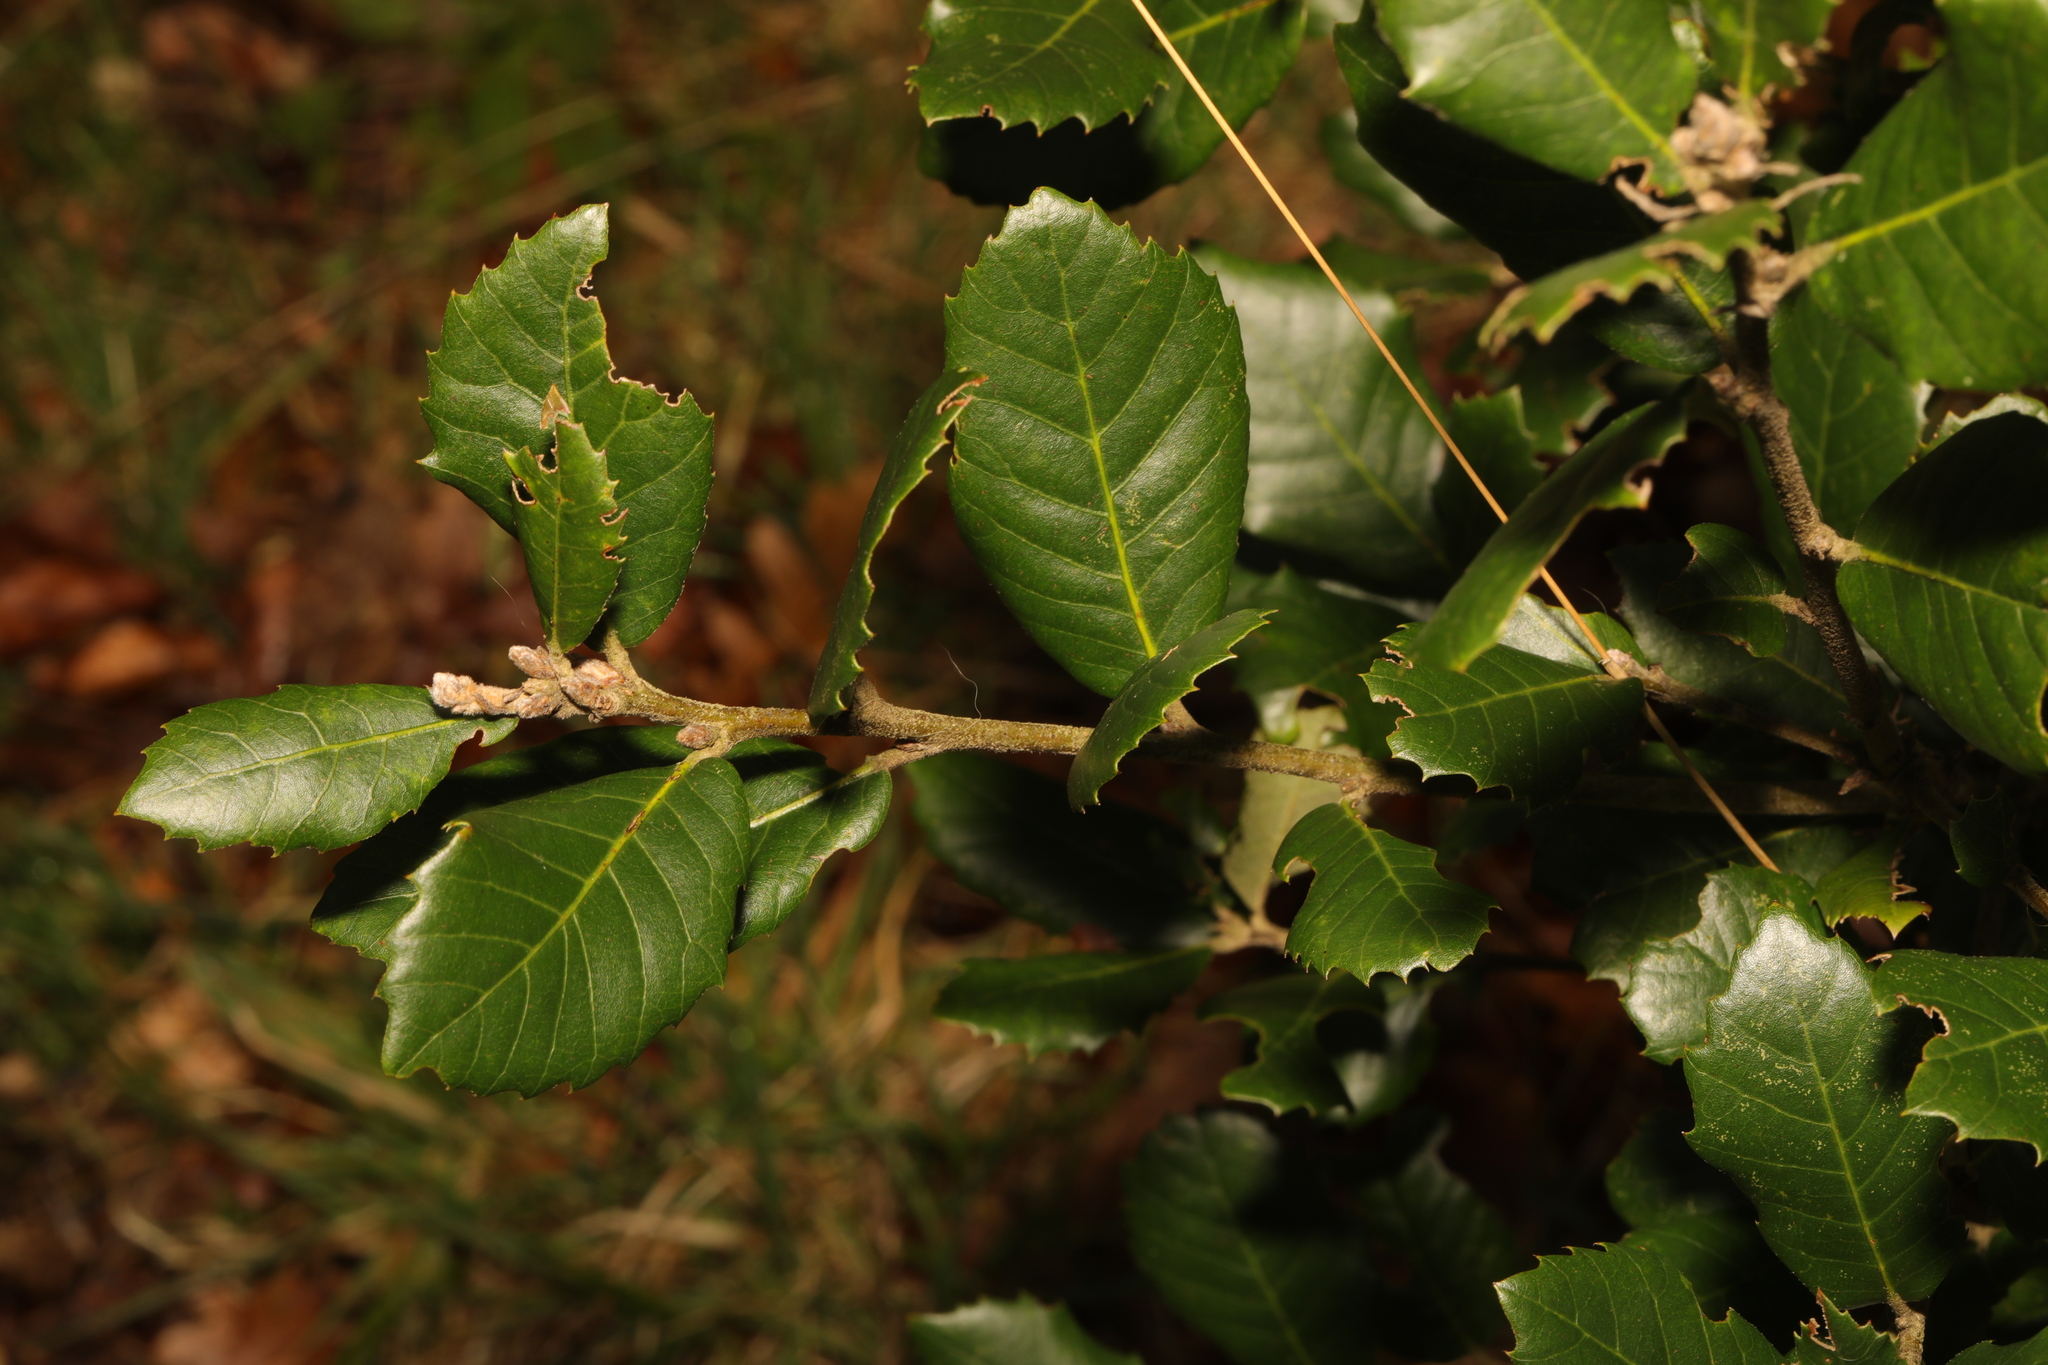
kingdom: Plantae
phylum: Tracheophyta
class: Magnoliopsida
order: Fagales
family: Fagaceae
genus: Quercus
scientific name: Quercus ilex
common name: Evergreen oak
